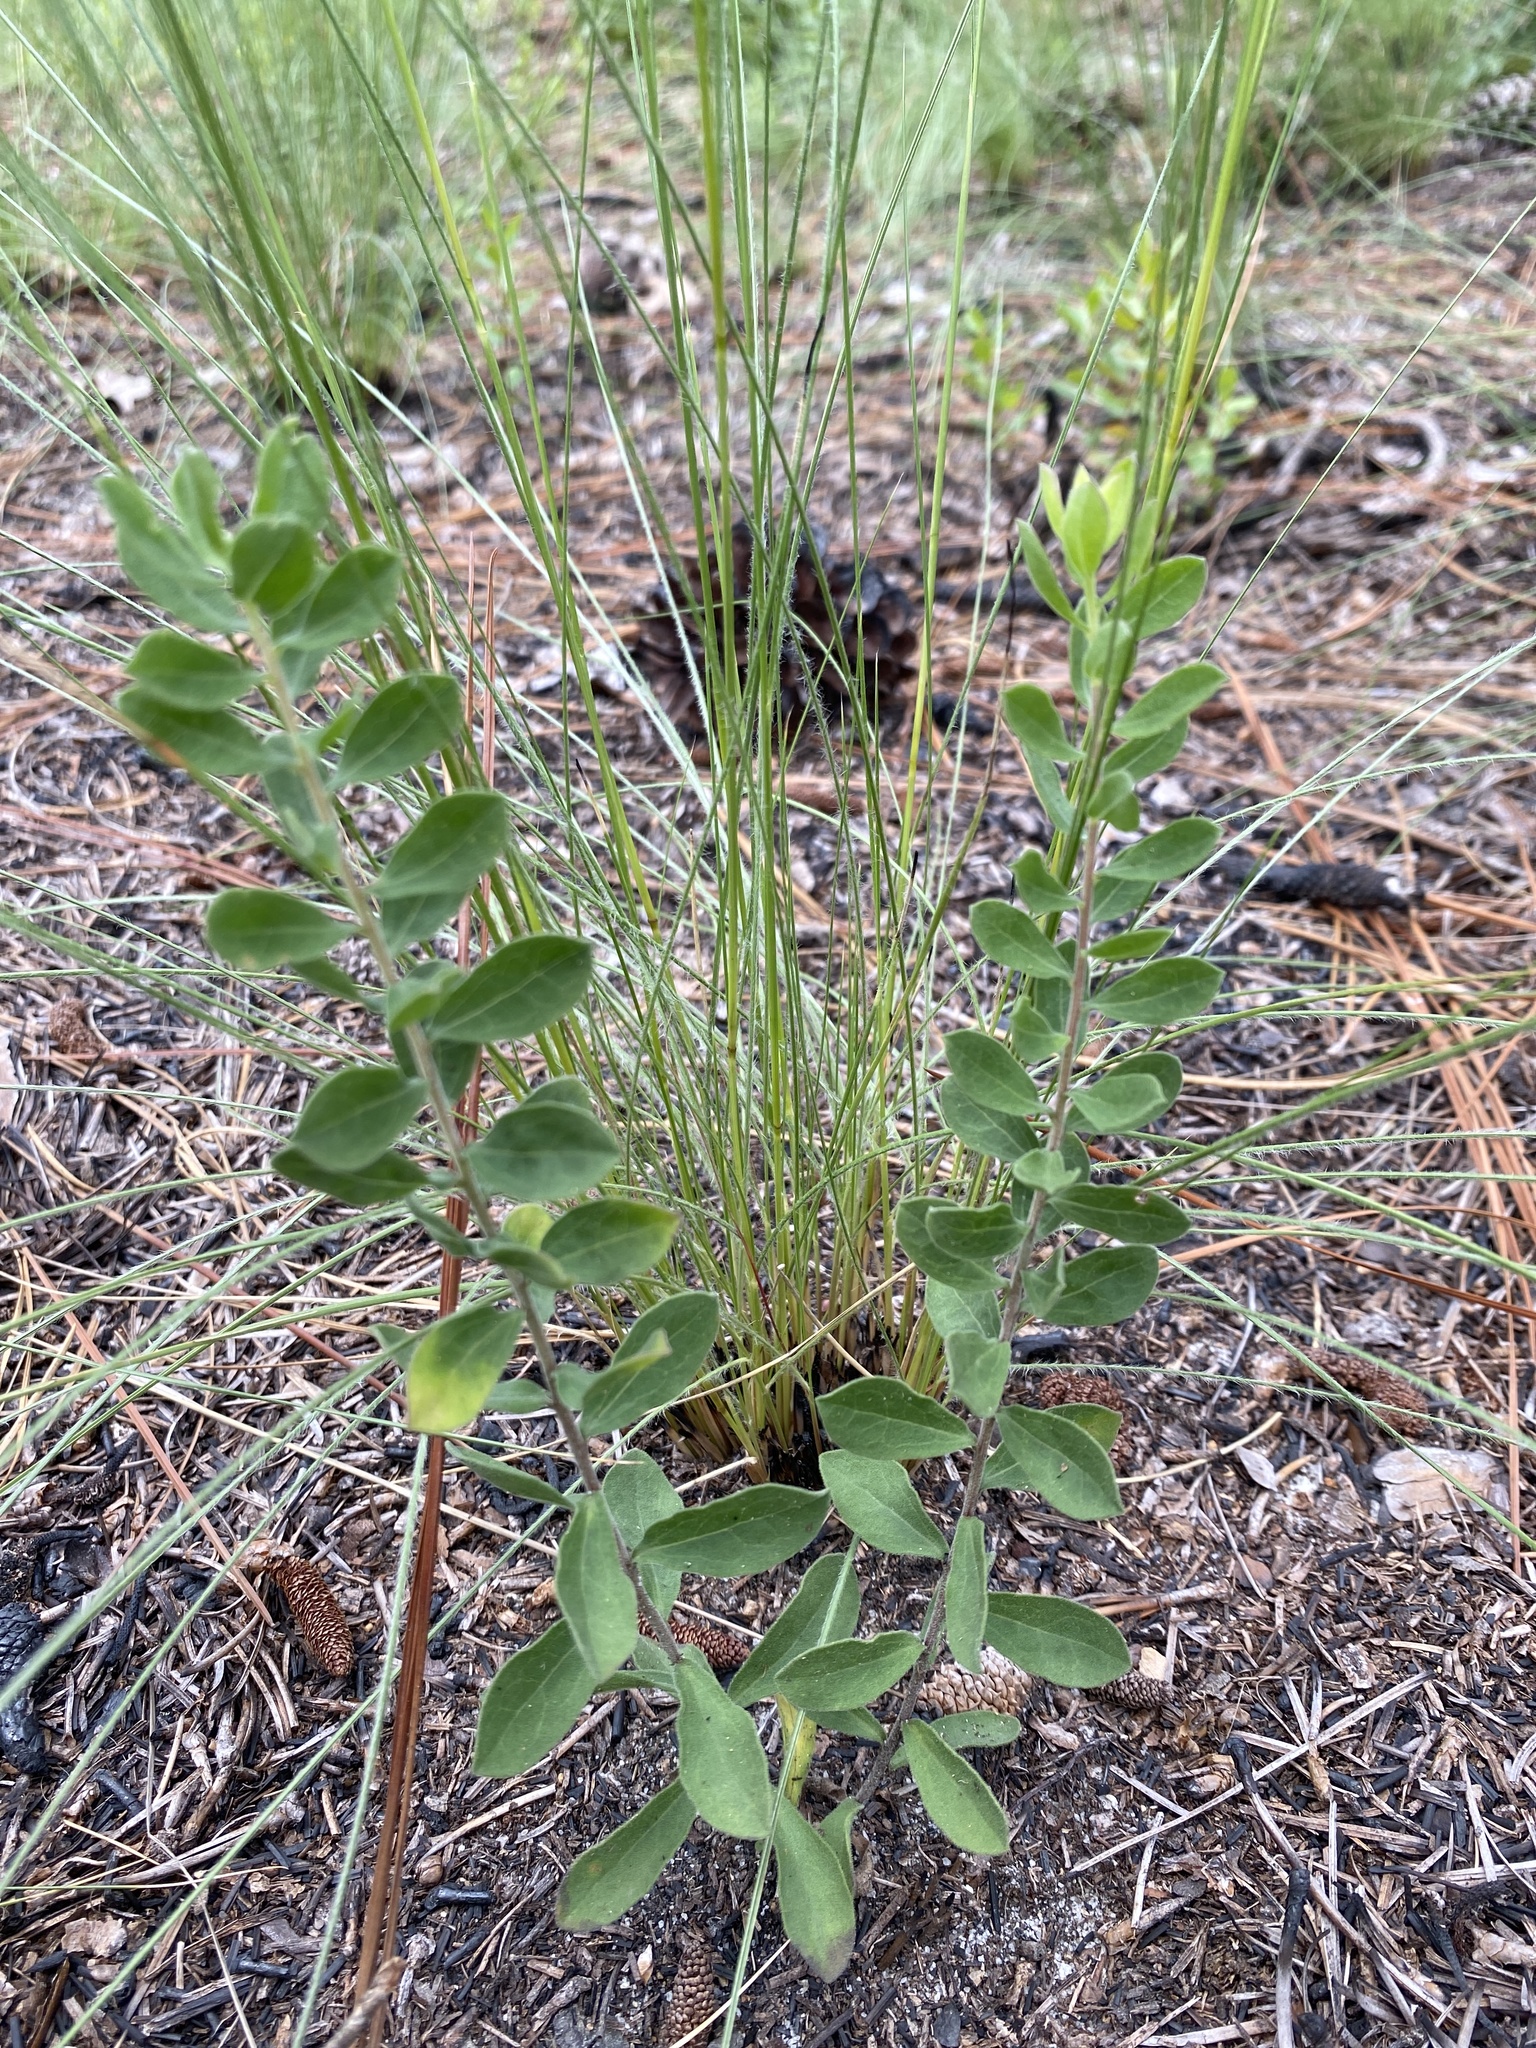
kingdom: Plantae
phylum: Tracheophyta
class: Magnoliopsida
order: Asterales
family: Asteraceae
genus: Sericocarpus
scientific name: Sericocarpus tortifolius
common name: Dixie aster
